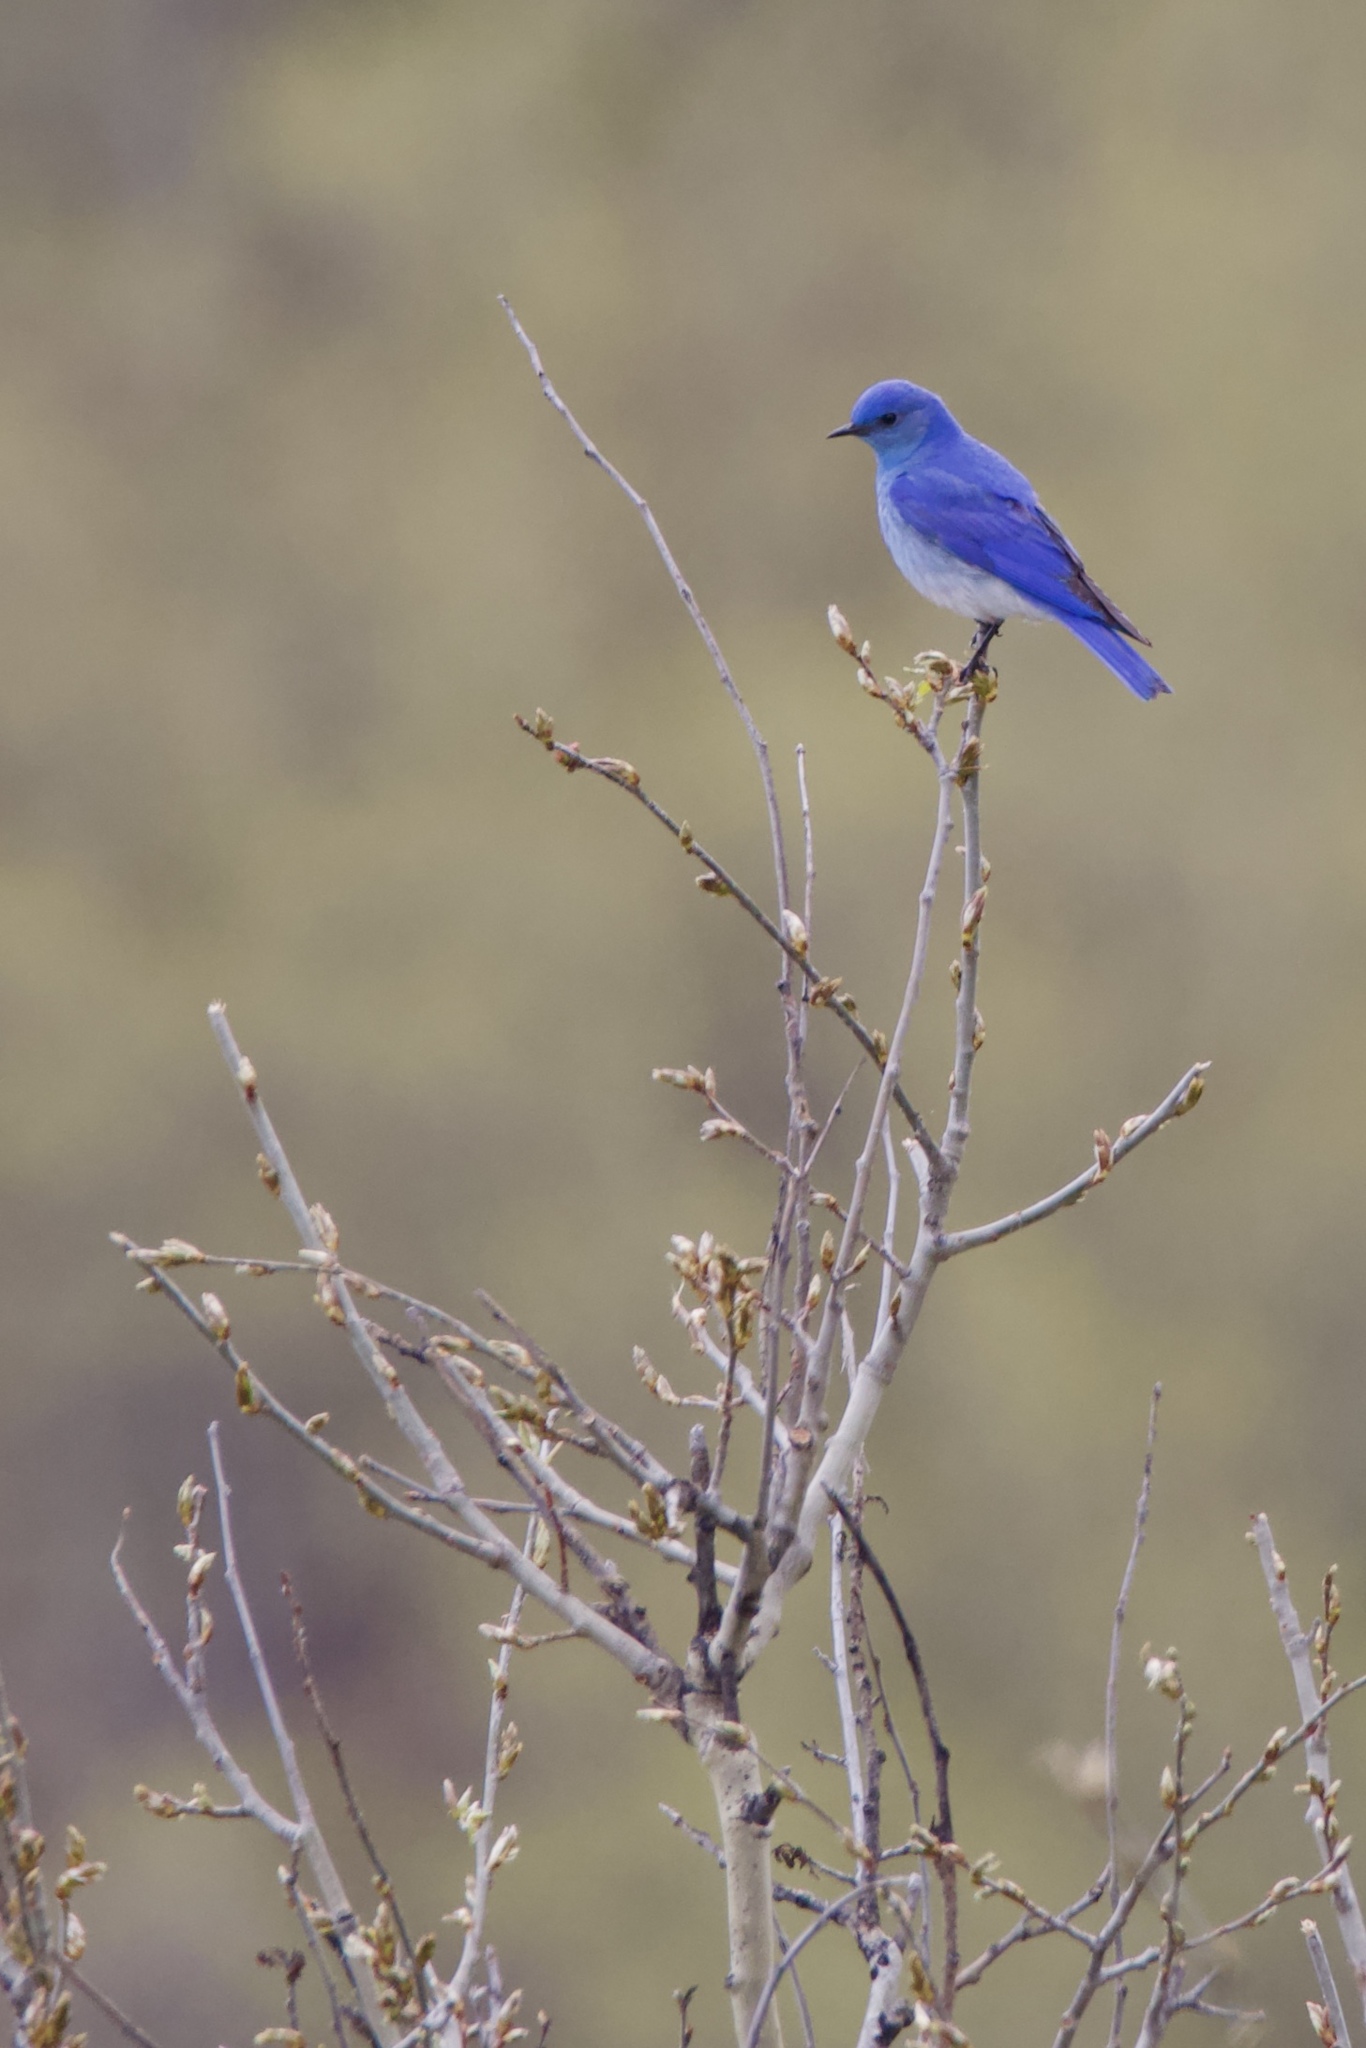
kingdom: Animalia
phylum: Chordata
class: Aves
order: Passeriformes
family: Turdidae
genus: Sialia
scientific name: Sialia currucoides
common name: Mountain bluebird
